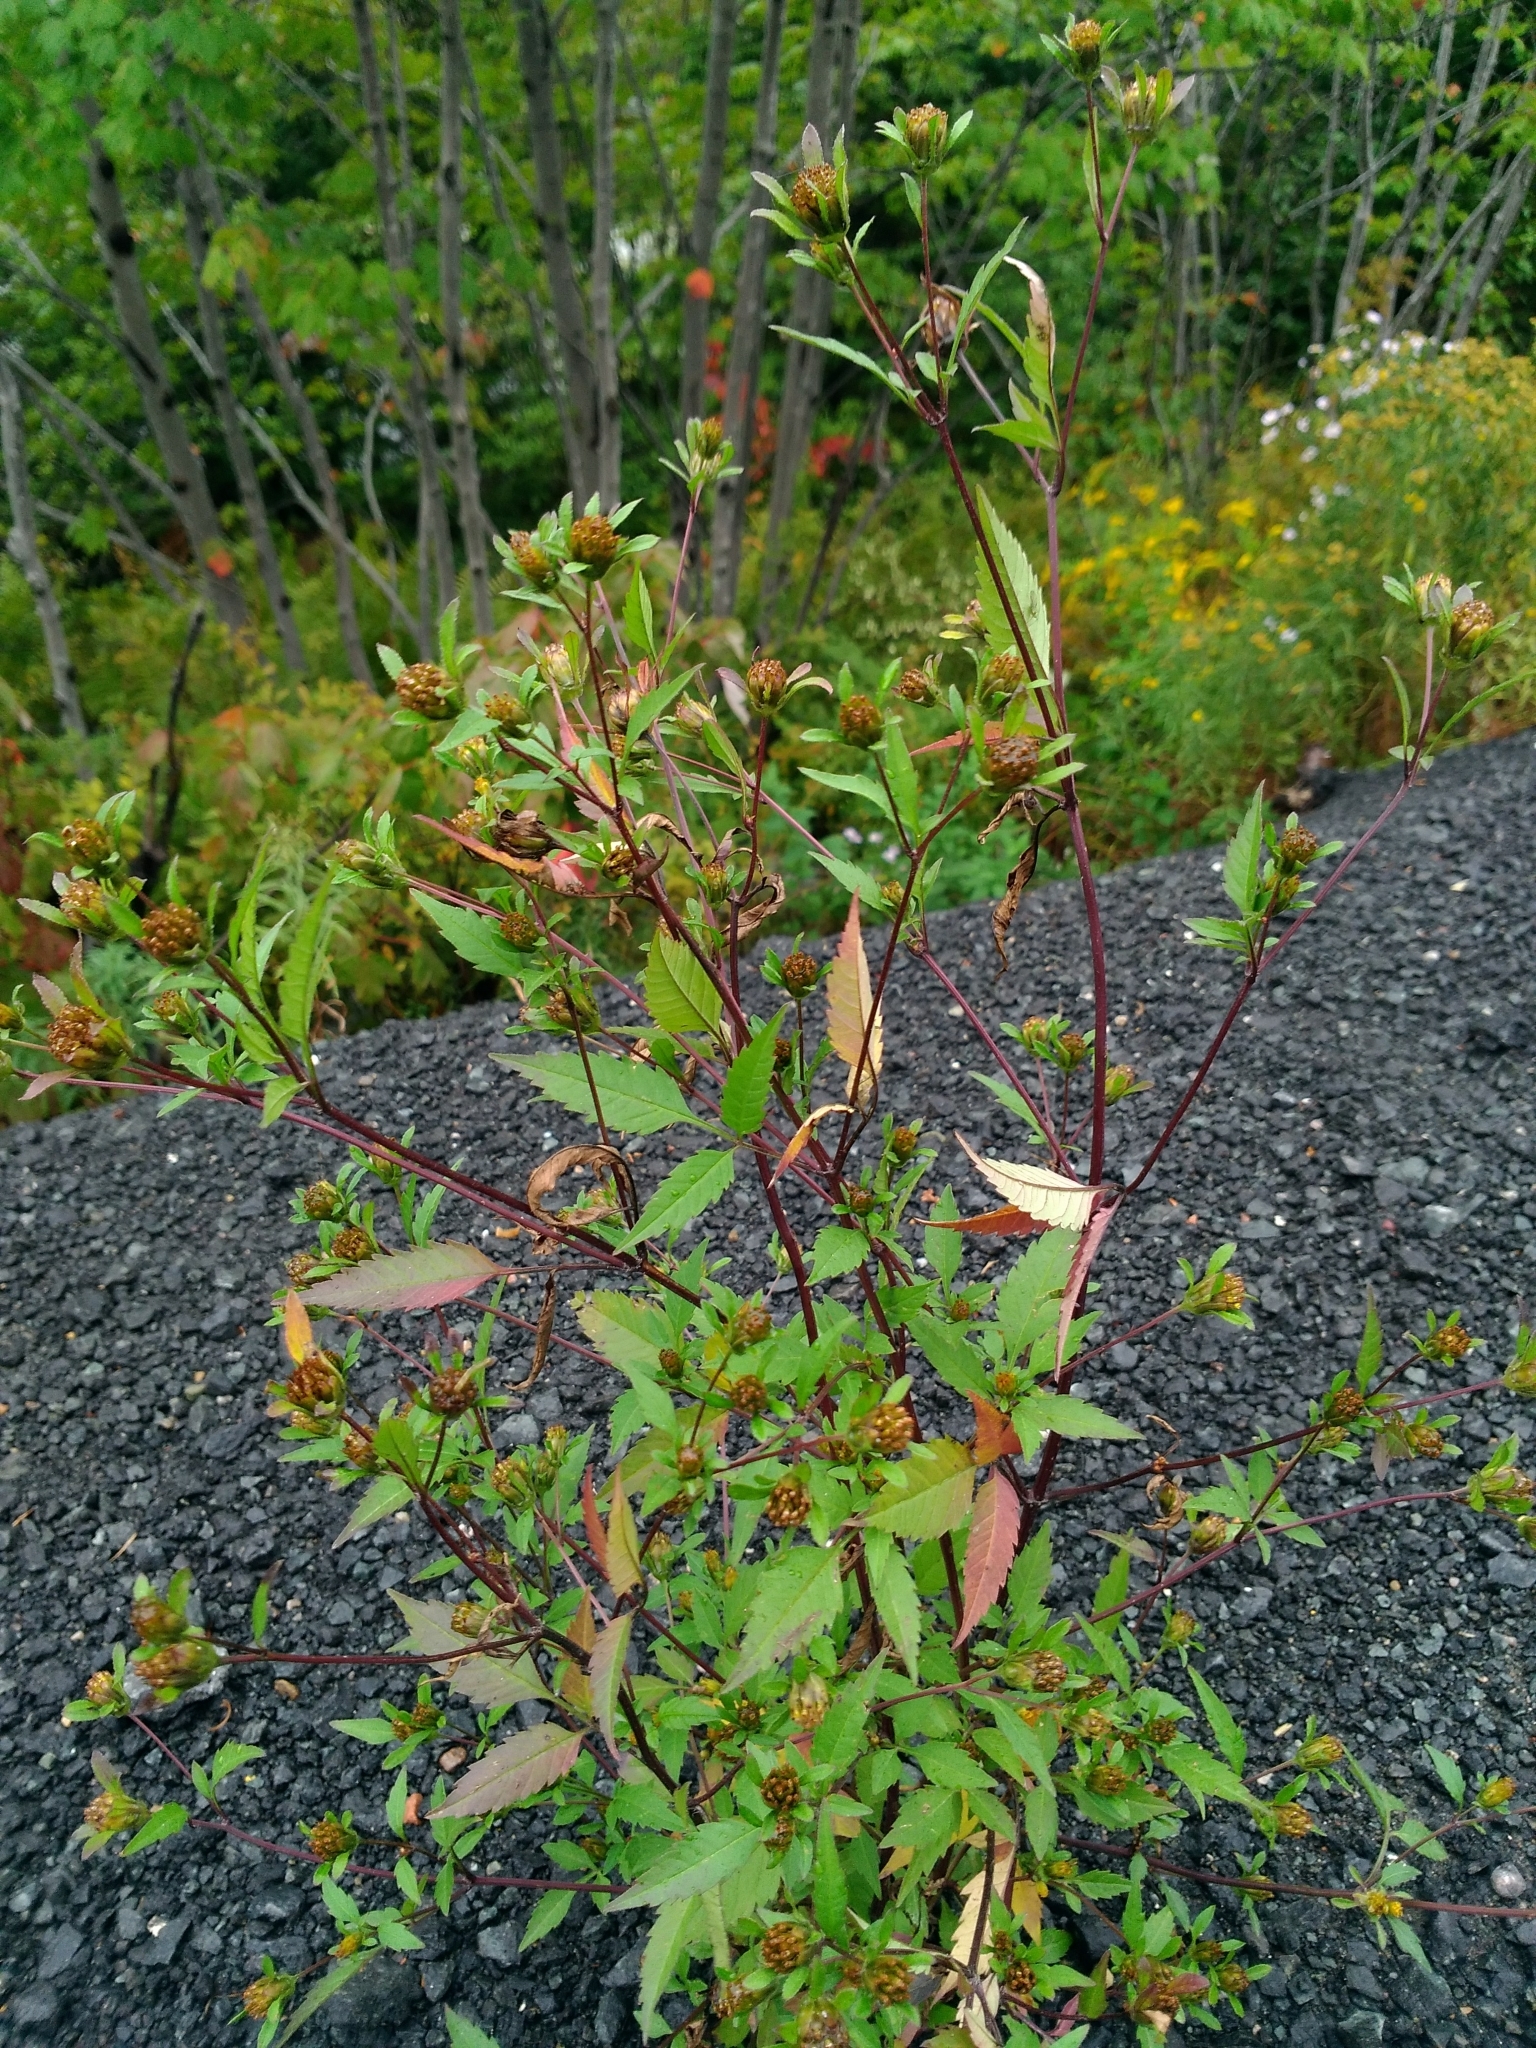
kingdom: Plantae
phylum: Tracheophyta
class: Magnoliopsida
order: Asterales
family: Asteraceae
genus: Bidens
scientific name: Bidens frondosa
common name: Beggarticks
